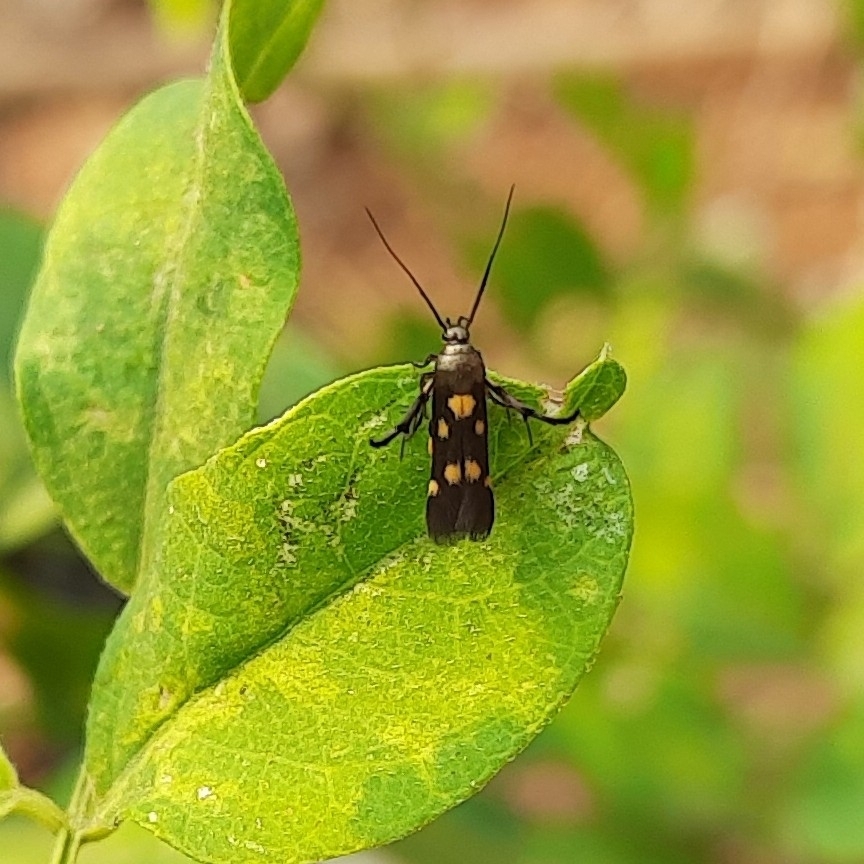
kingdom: Animalia
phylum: Arthropoda
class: Insecta
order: Lepidoptera
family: Scythrididae
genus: Eretmocera
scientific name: Eretmocera impactella
